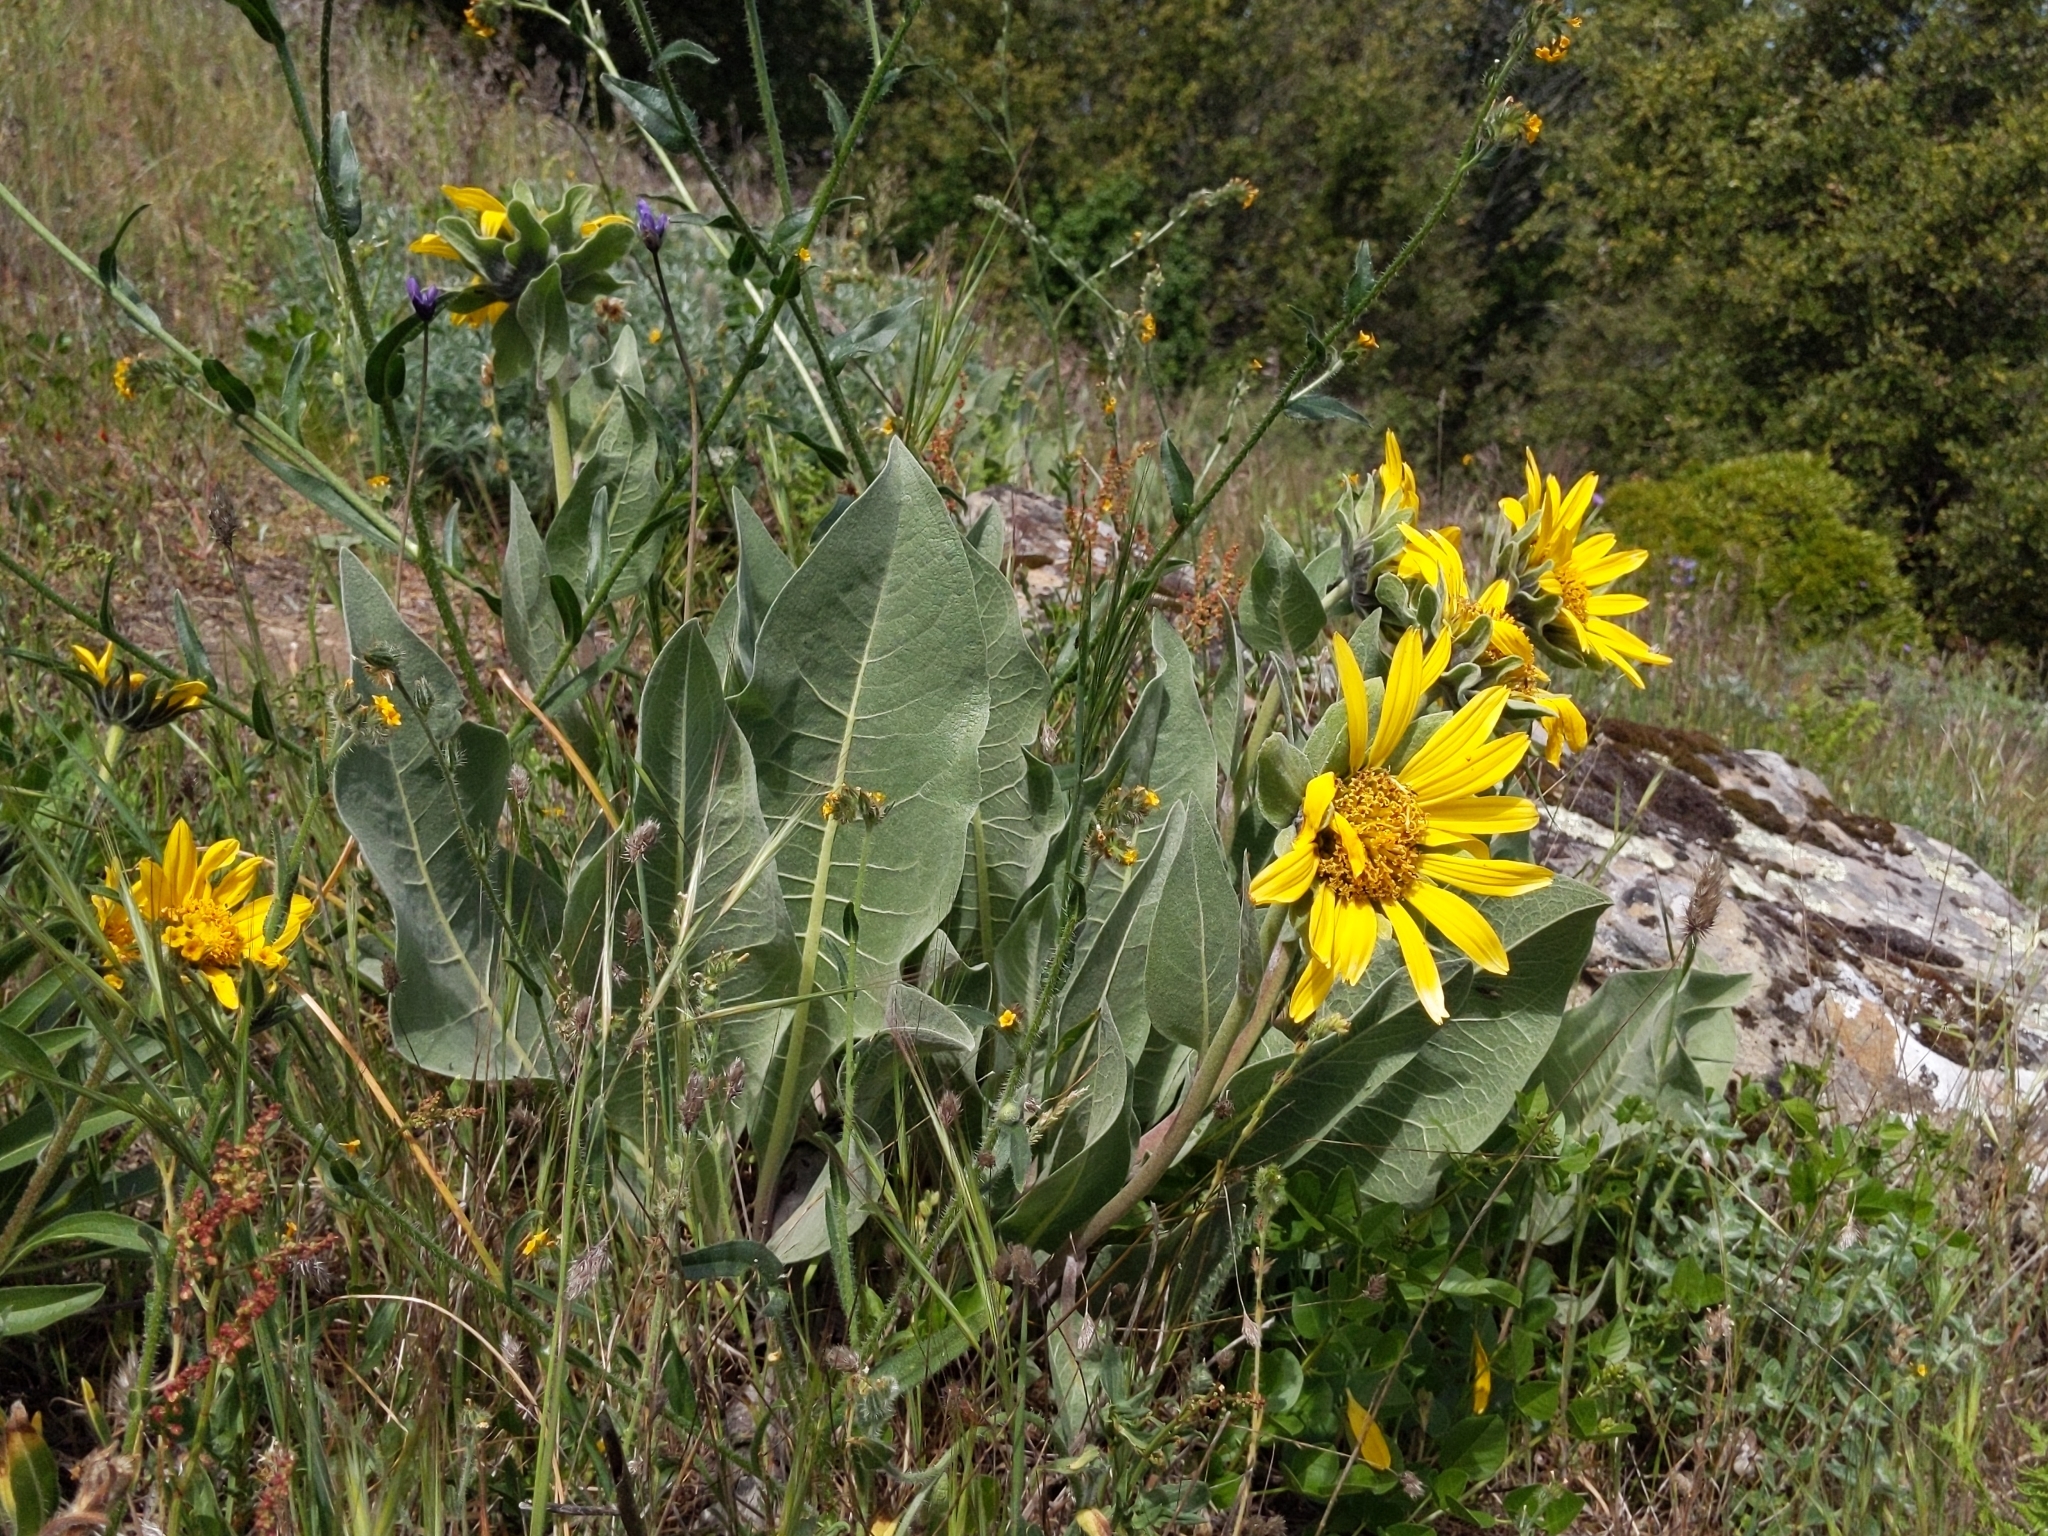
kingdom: Plantae
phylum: Tracheophyta
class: Magnoliopsida
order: Asterales
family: Asteraceae
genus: Wyethia
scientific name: Wyethia helenioides
